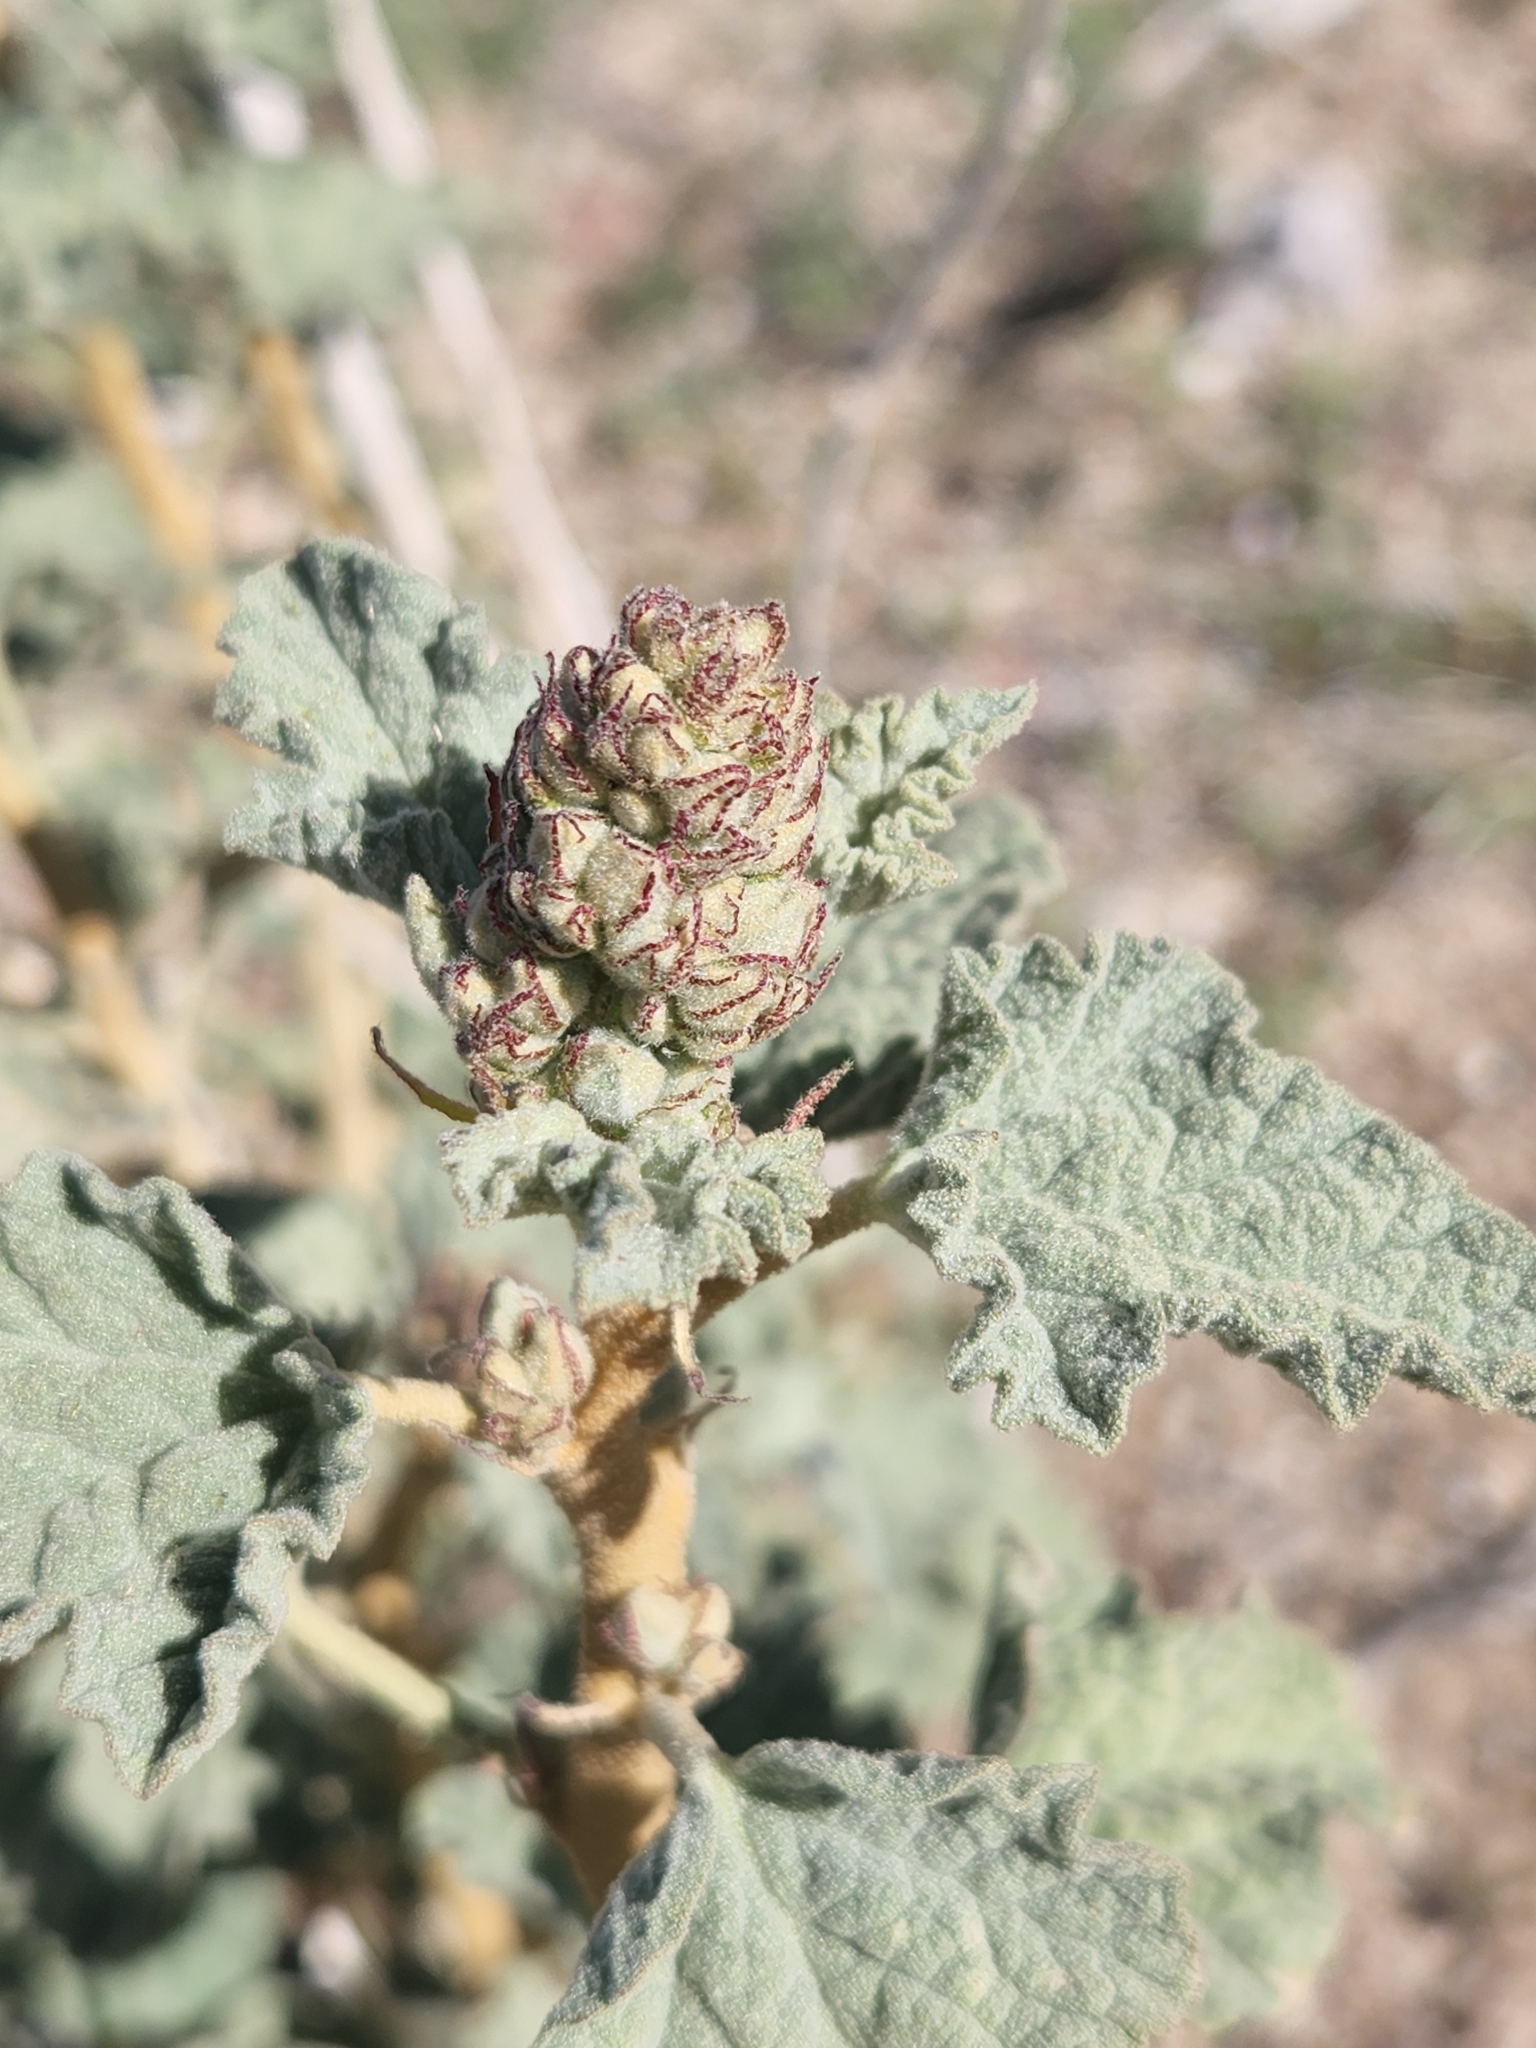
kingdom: Plantae
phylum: Tracheophyta
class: Magnoliopsida
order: Malvales
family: Malvaceae
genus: Sphaeralcea
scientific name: Sphaeralcea ambigua
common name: Apricot globe-mallow
